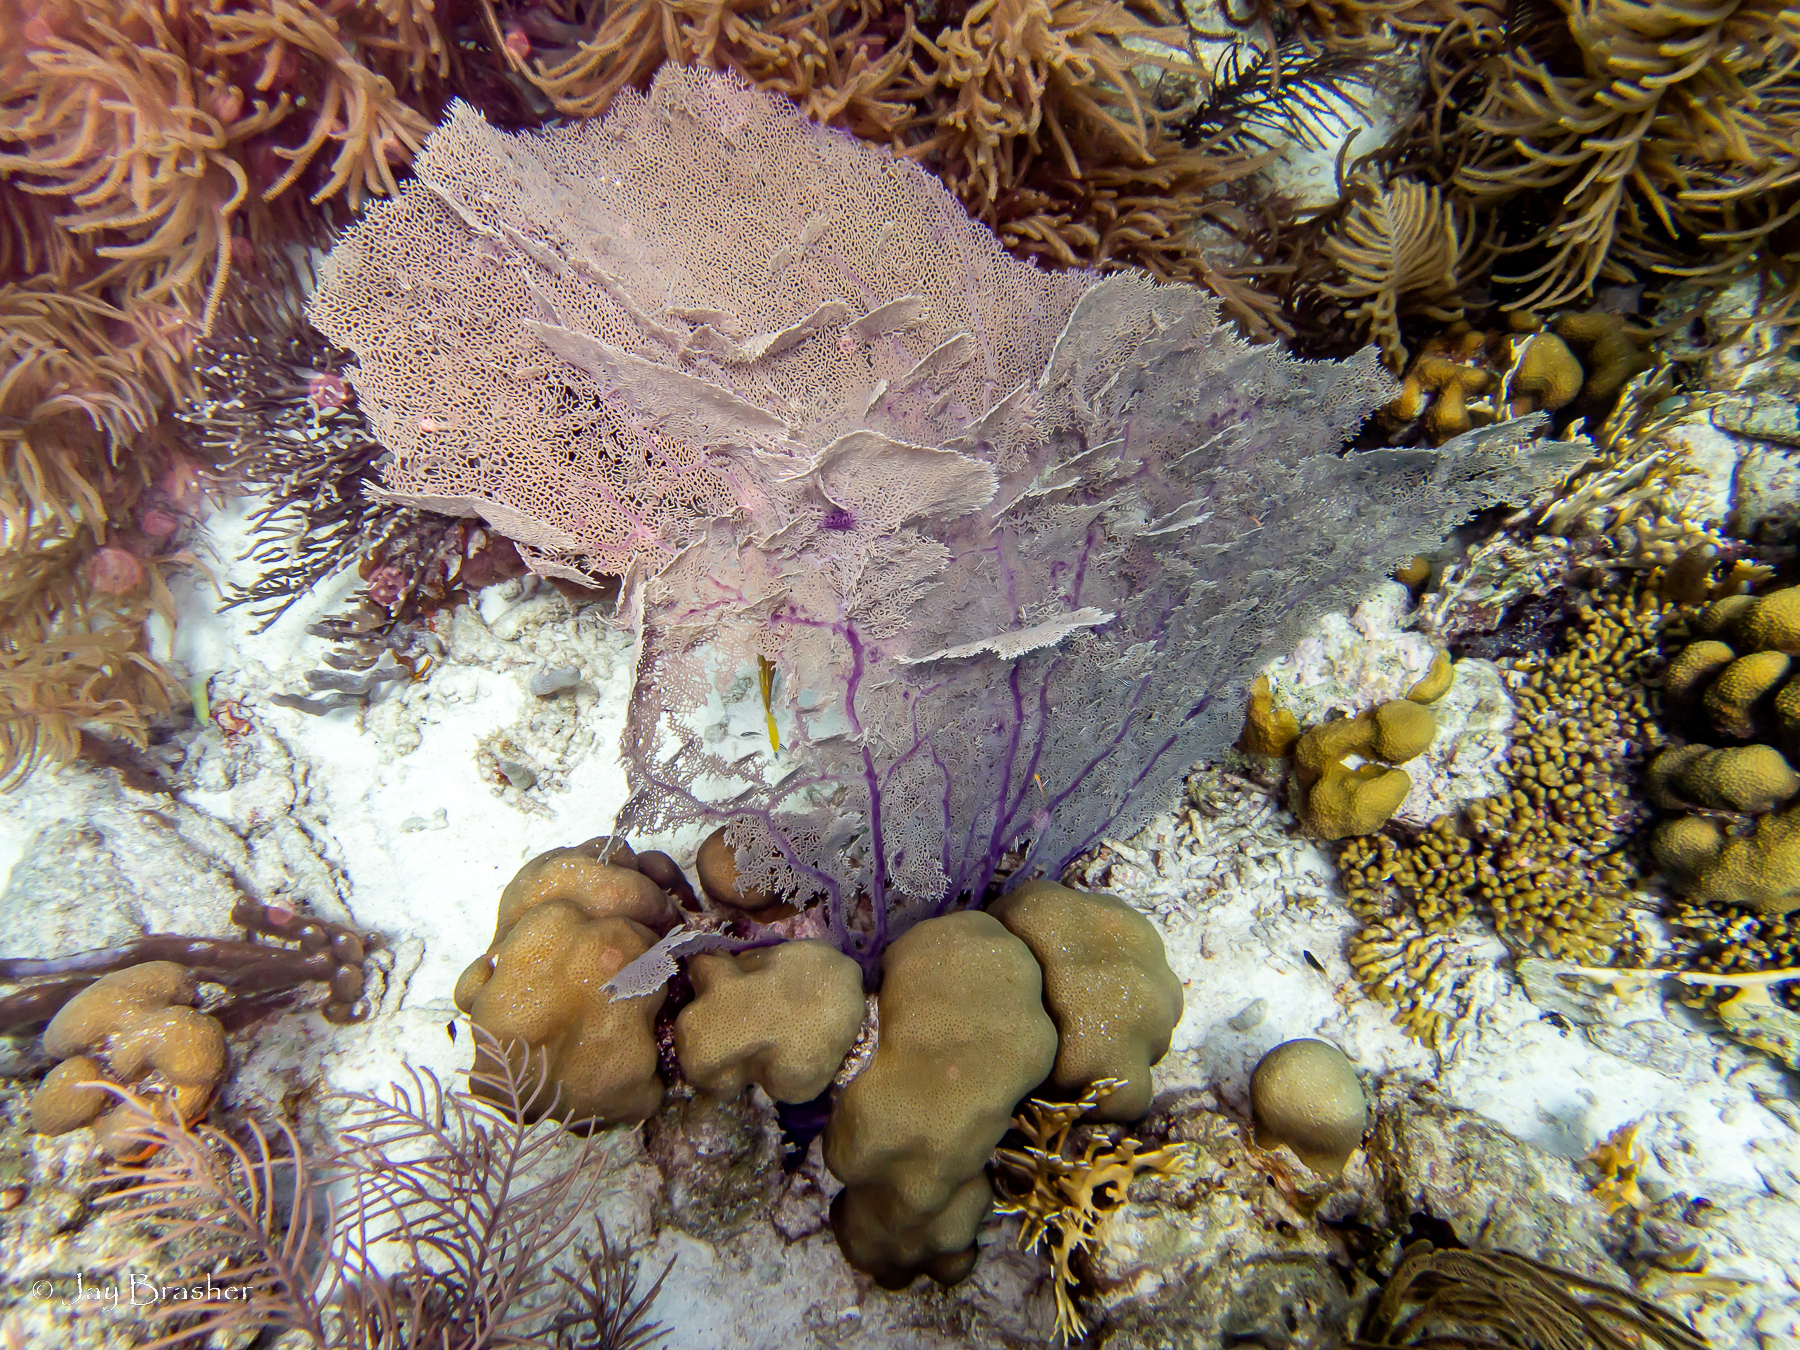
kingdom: Animalia
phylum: Cnidaria
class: Anthozoa
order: Malacalcyonacea
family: Gorgoniidae
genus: Gorgonia
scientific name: Gorgonia ventalina
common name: Common sea fan
